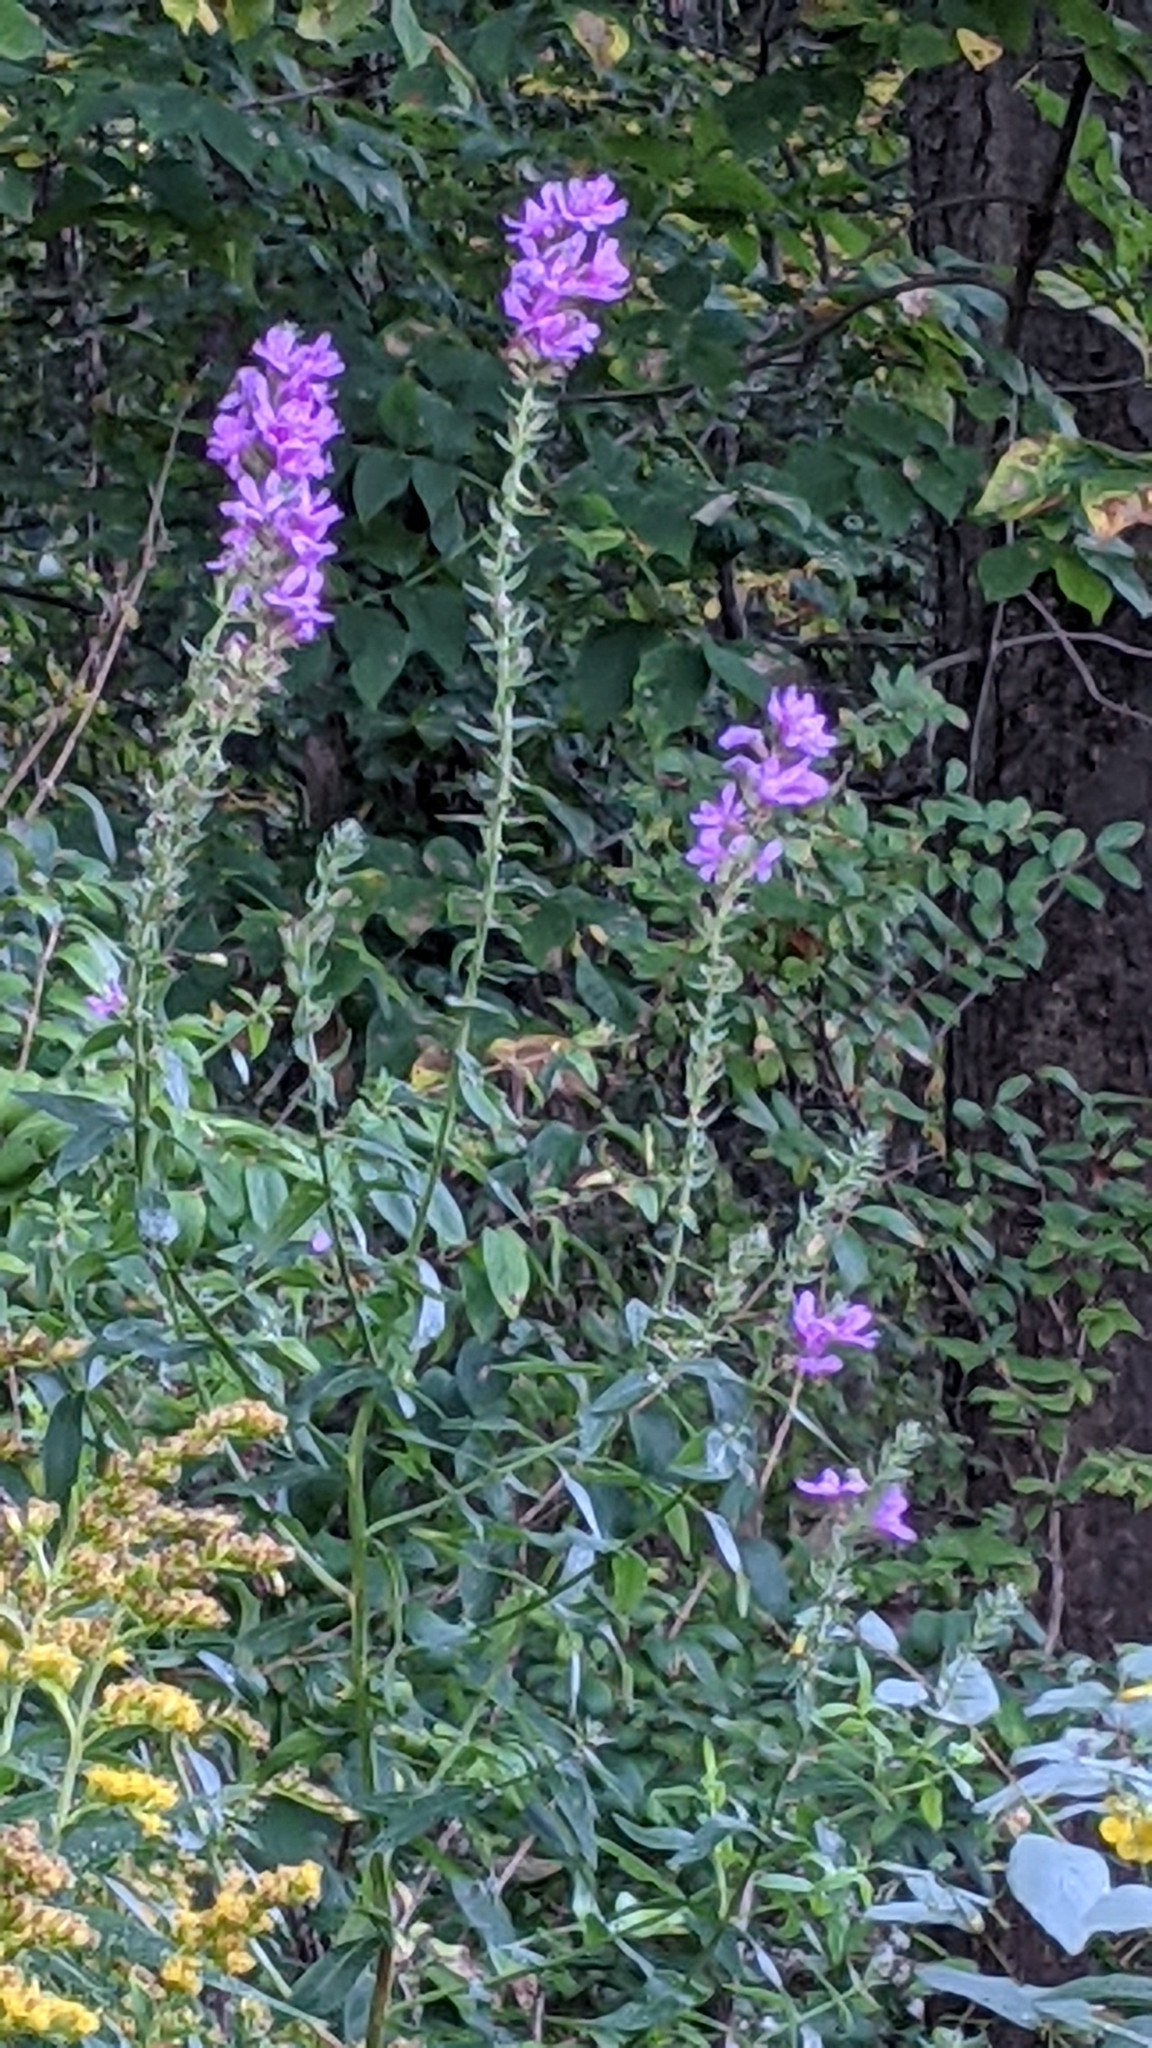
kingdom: Plantae
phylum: Tracheophyta
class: Magnoliopsida
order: Myrtales
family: Lythraceae
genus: Lythrum
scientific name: Lythrum salicaria
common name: Purple loosestrife
